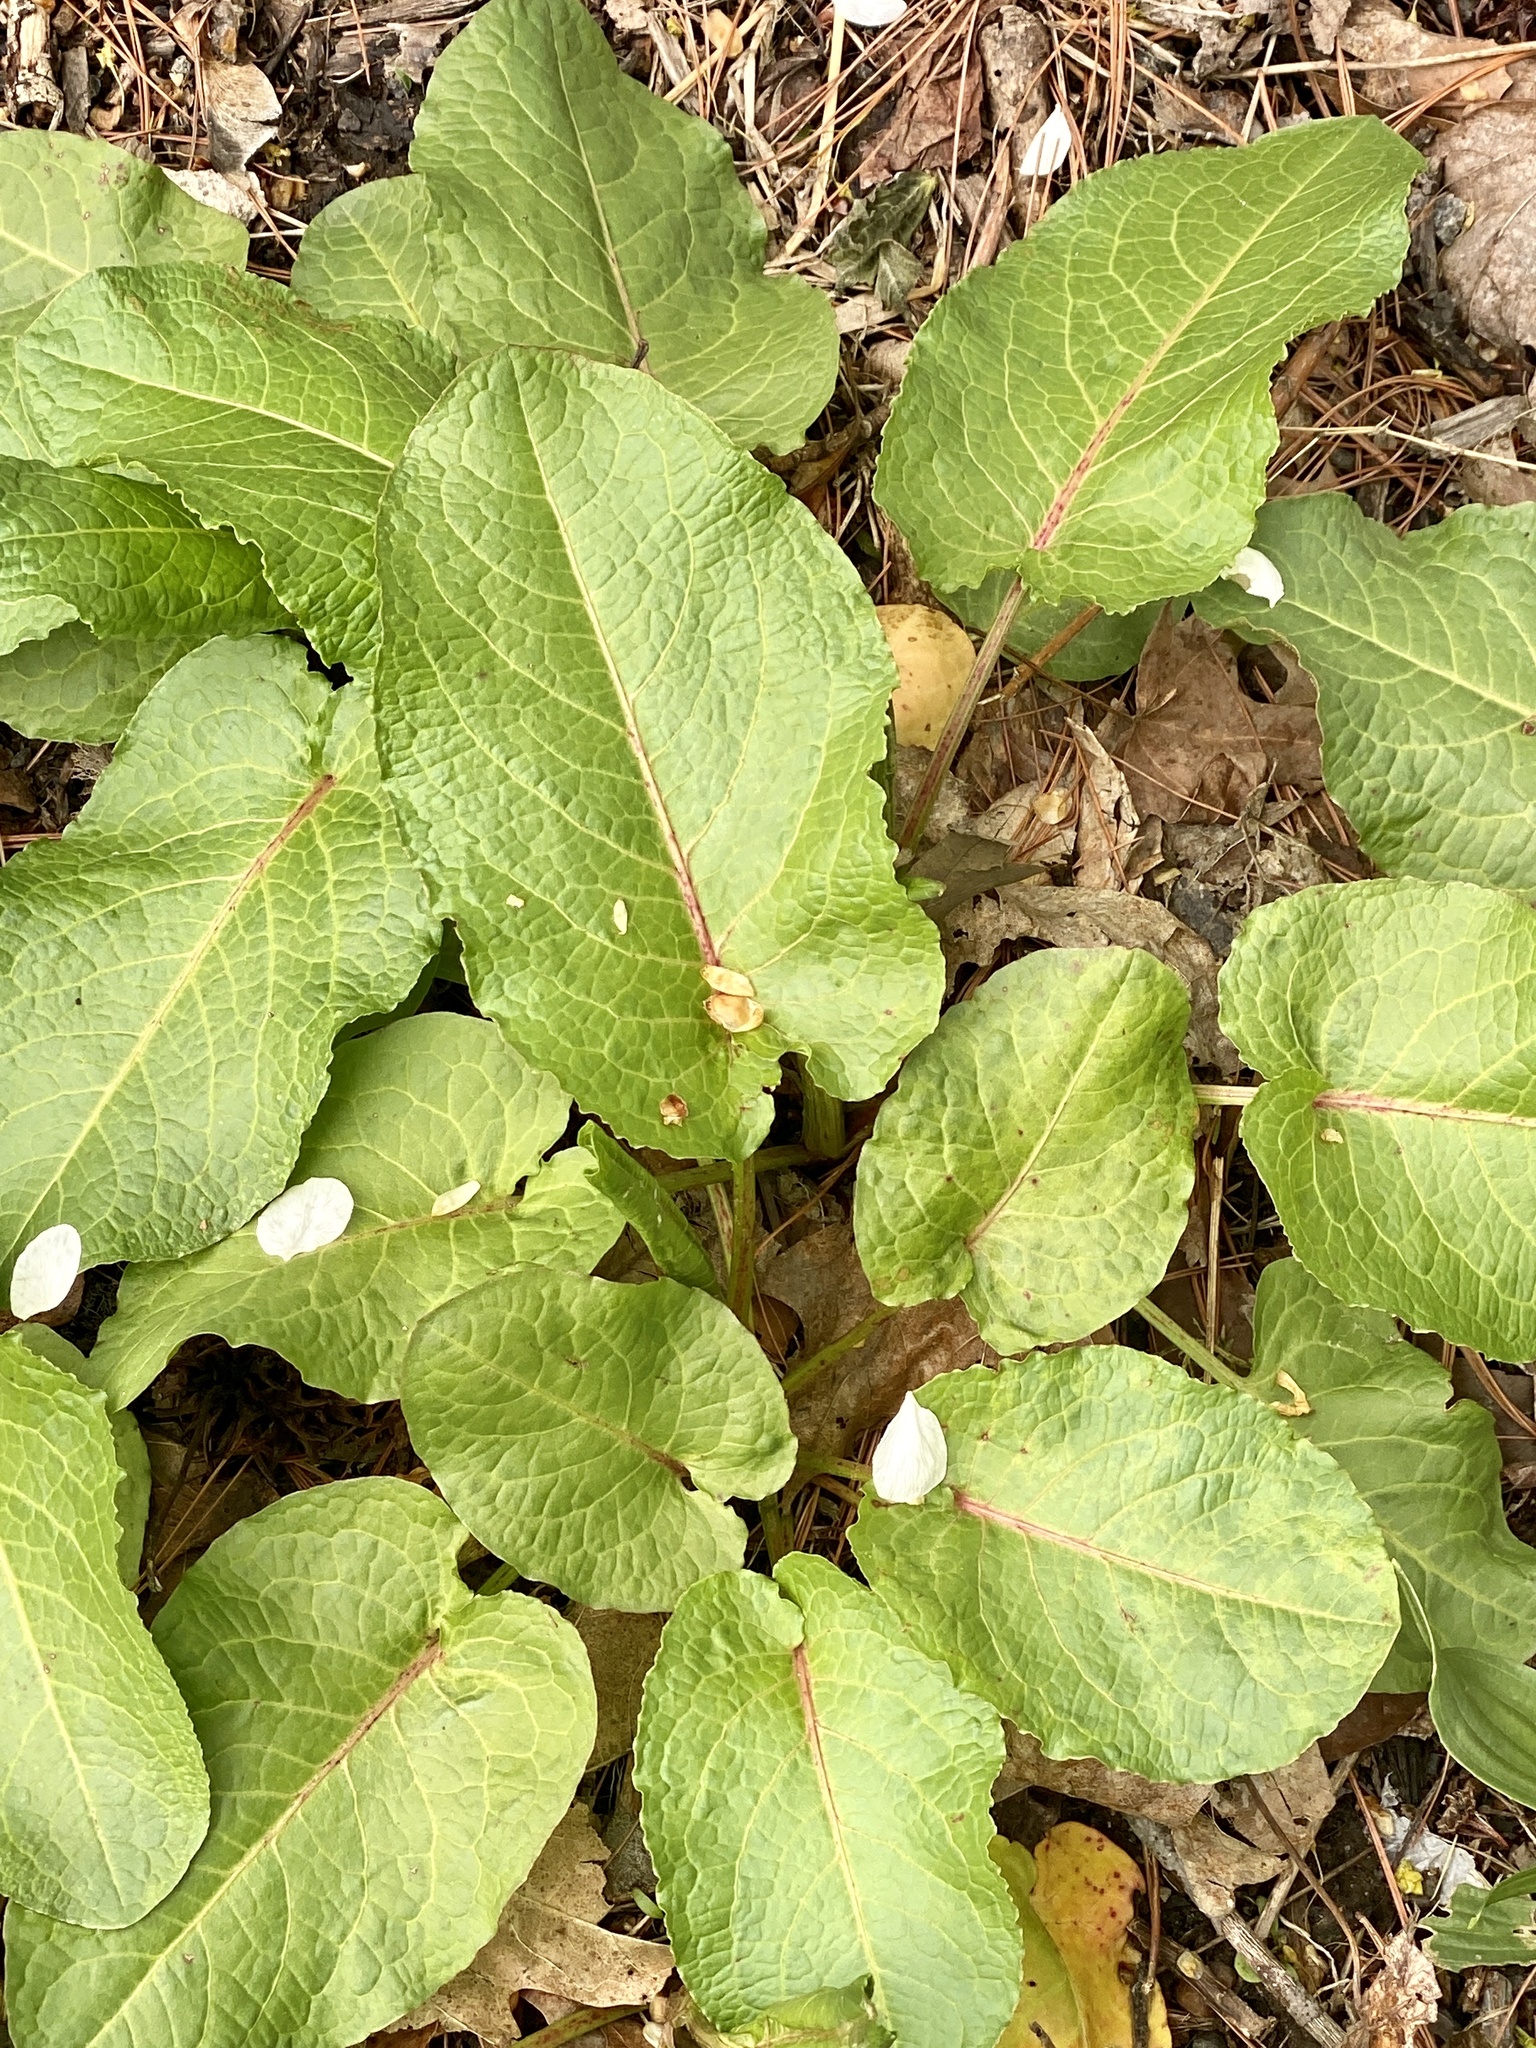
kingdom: Plantae
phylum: Tracheophyta
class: Magnoliopsida
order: Caryophyllales
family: Polygonaceae
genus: Rumex
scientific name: Rumex obtusifolius
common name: Bitter dock
